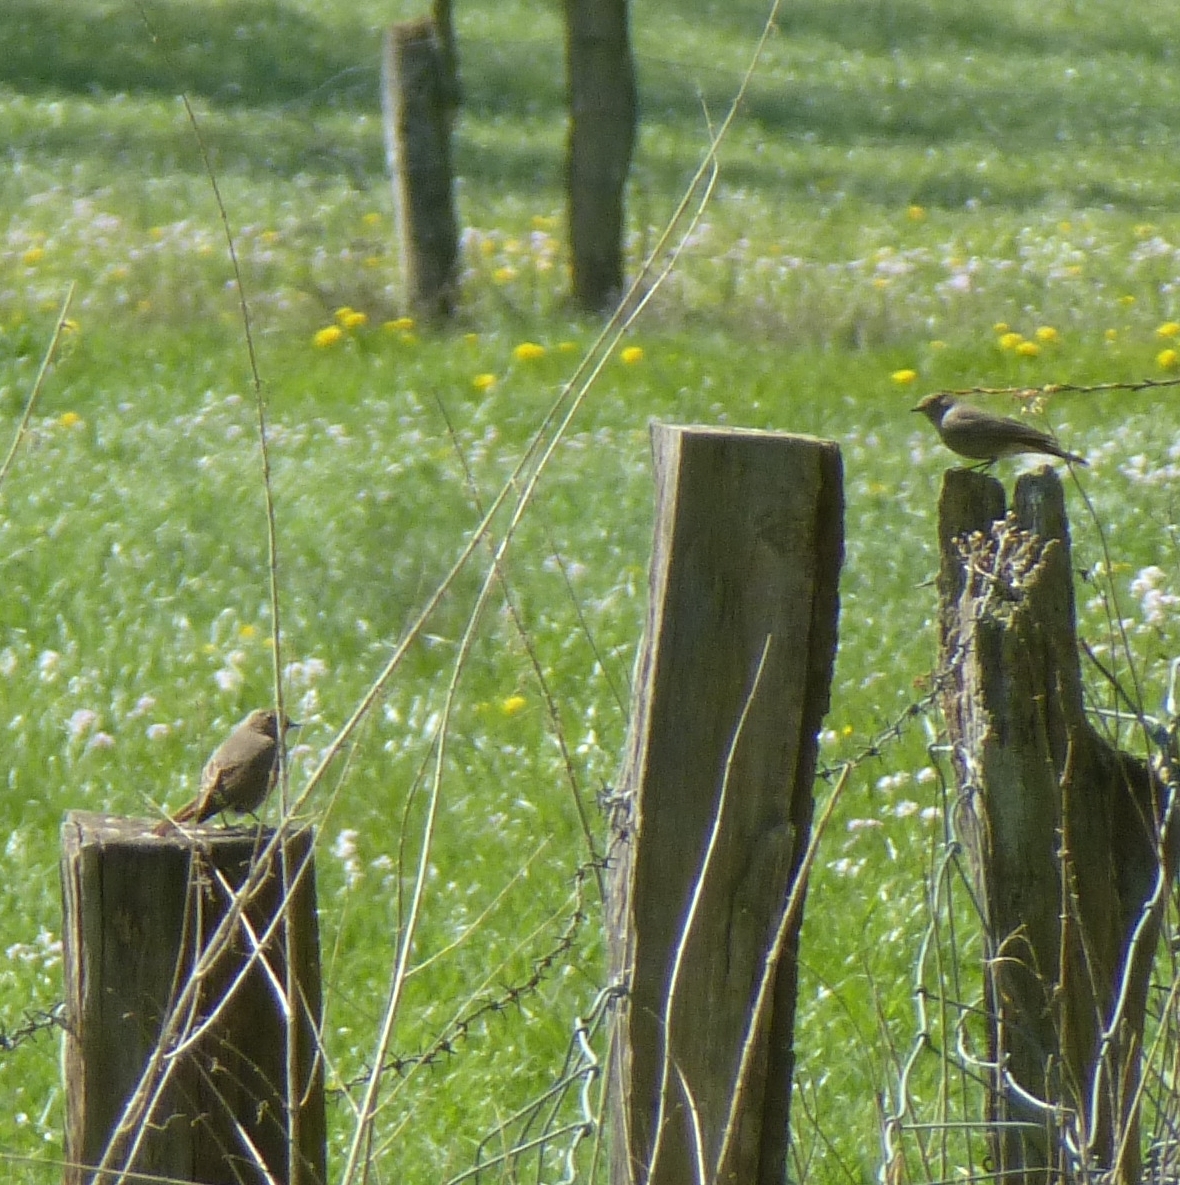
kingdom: Animalia
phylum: Chordata
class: Aves
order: Passeriformes
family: Muscicapidae
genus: Phoenicurus
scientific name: Phoenicurus phoenicurus
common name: Common redstart
